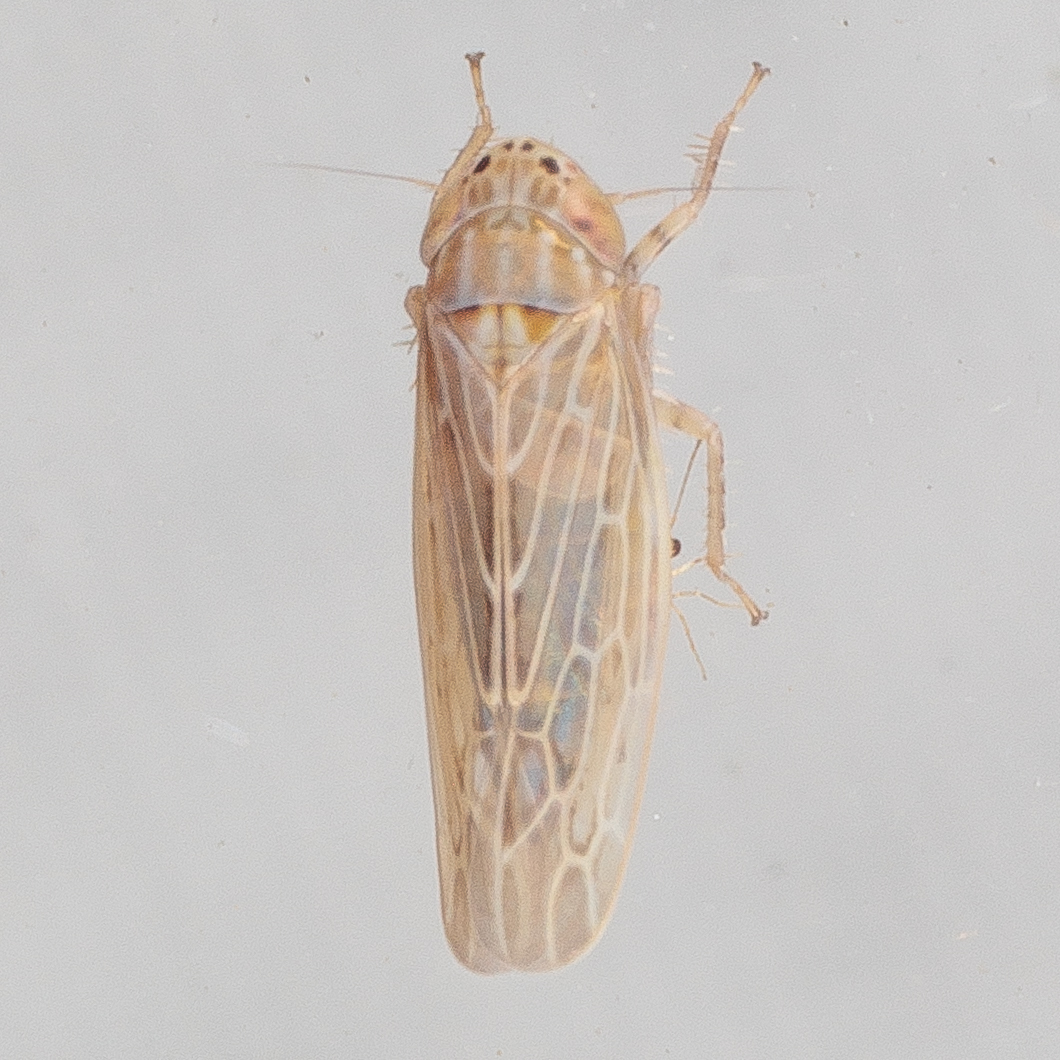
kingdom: Animalia
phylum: Arthropoda
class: Insecta
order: Hemiptera
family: Cicadellidae
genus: Graminella
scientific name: Graminella sonora
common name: Lesser lawn leafhopper
